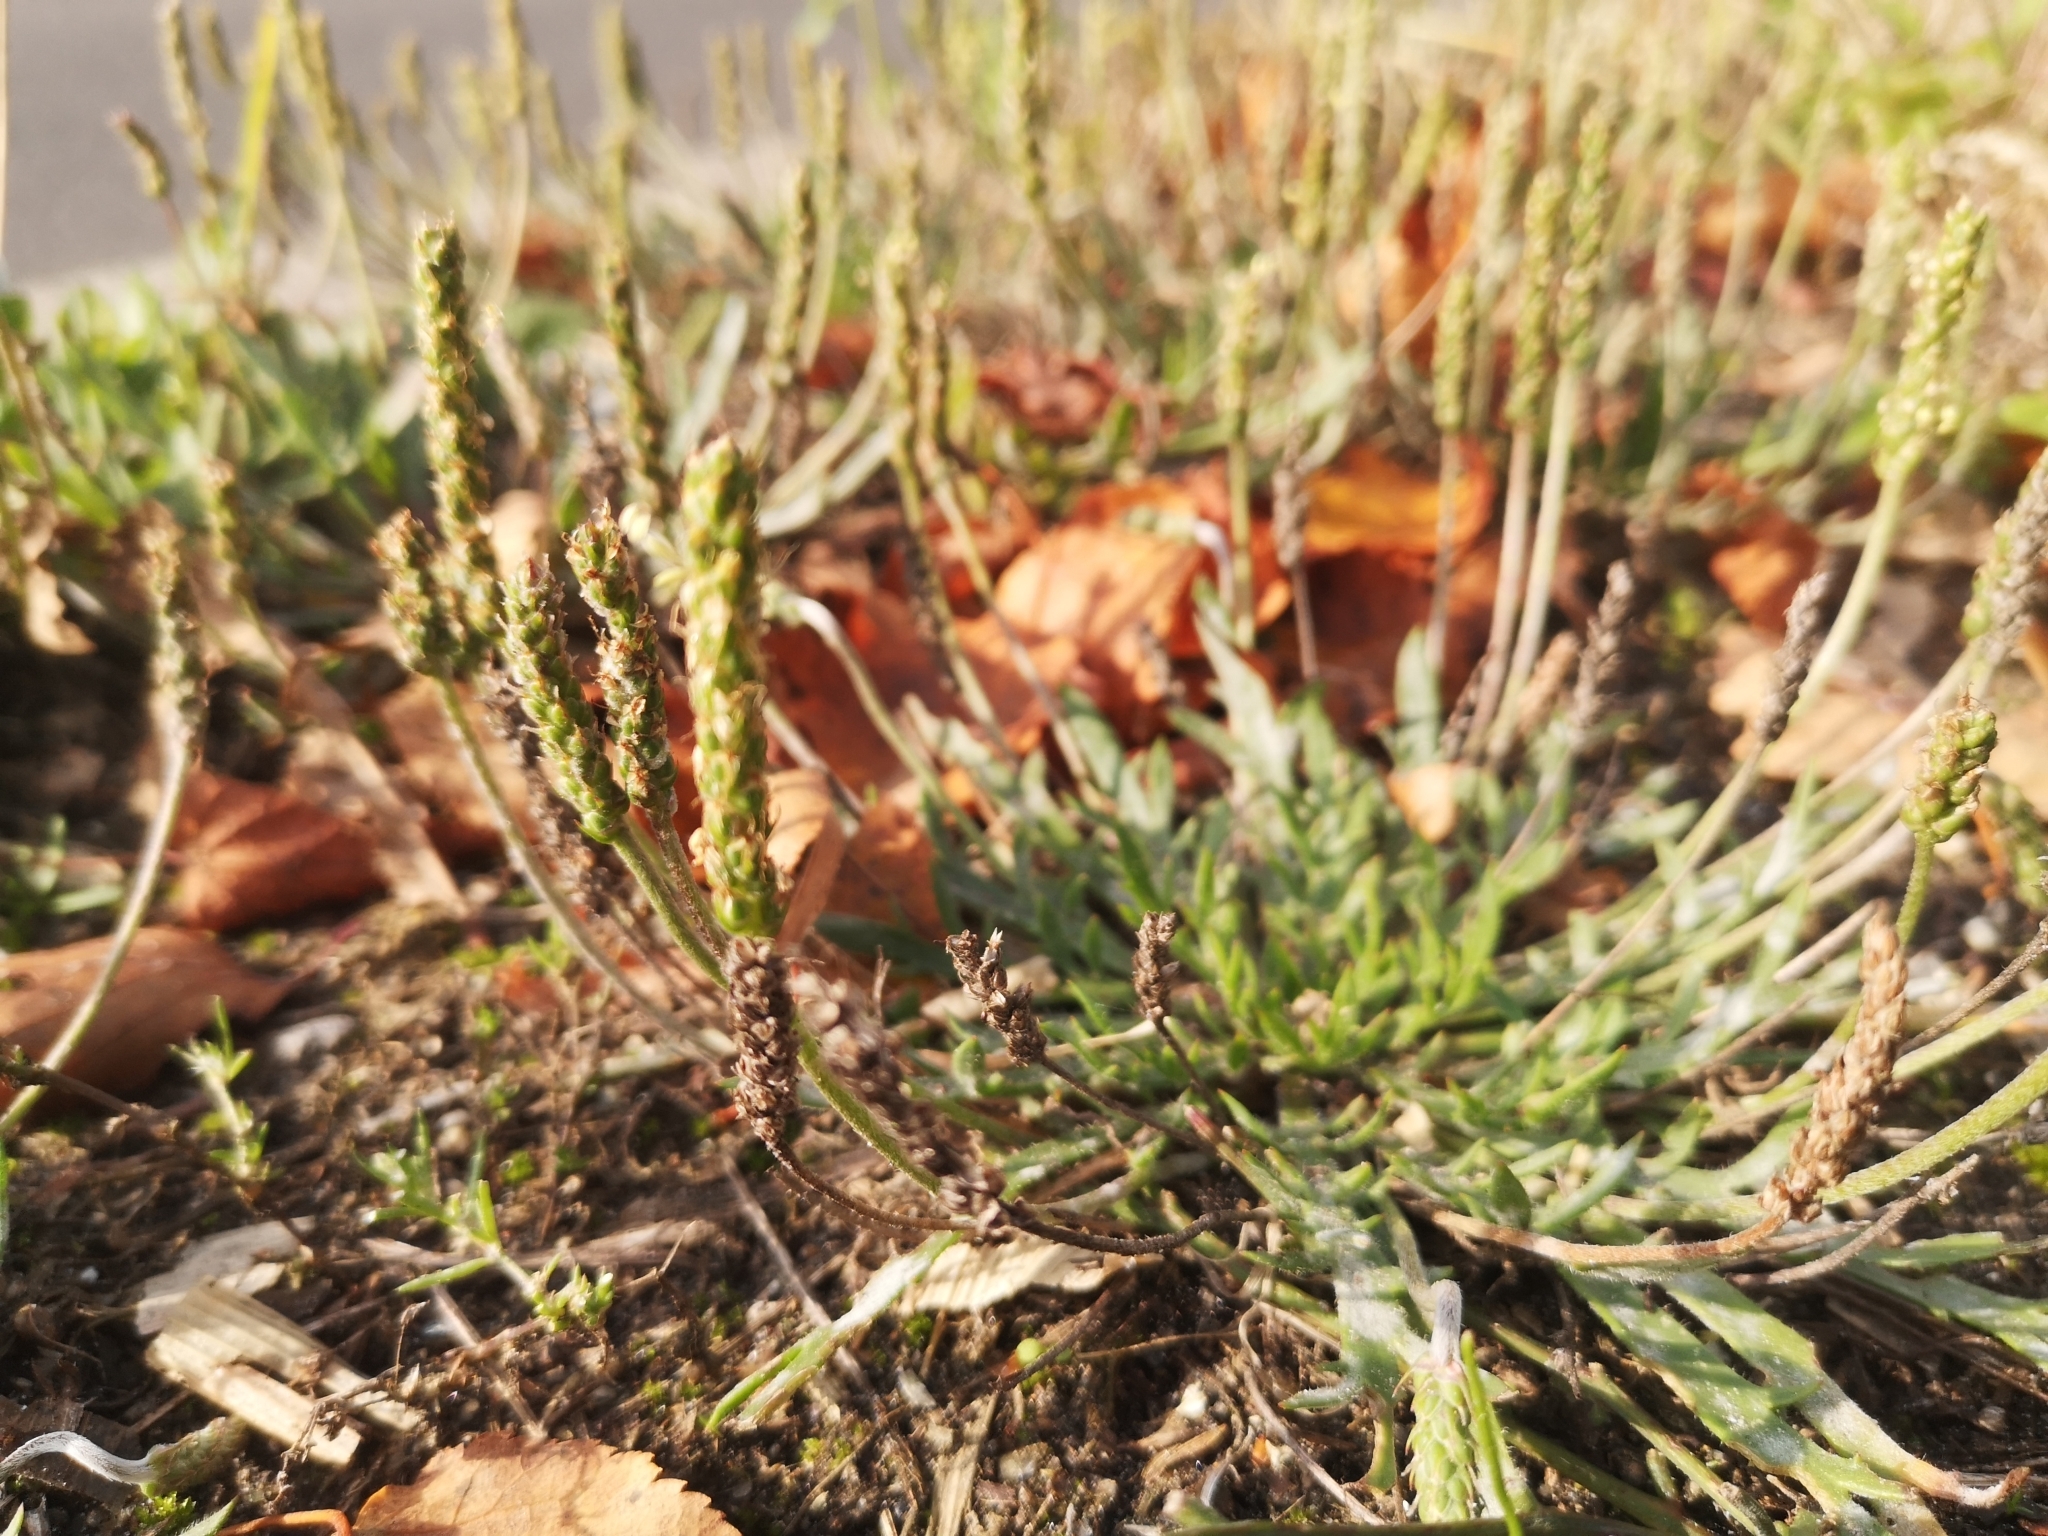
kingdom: Plantae
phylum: Tracheophyta
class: Magnoliopsida
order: Lamiales
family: Plantaginaceae
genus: Plantago
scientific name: Plantago coronopus
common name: Buck's-horn plantain
